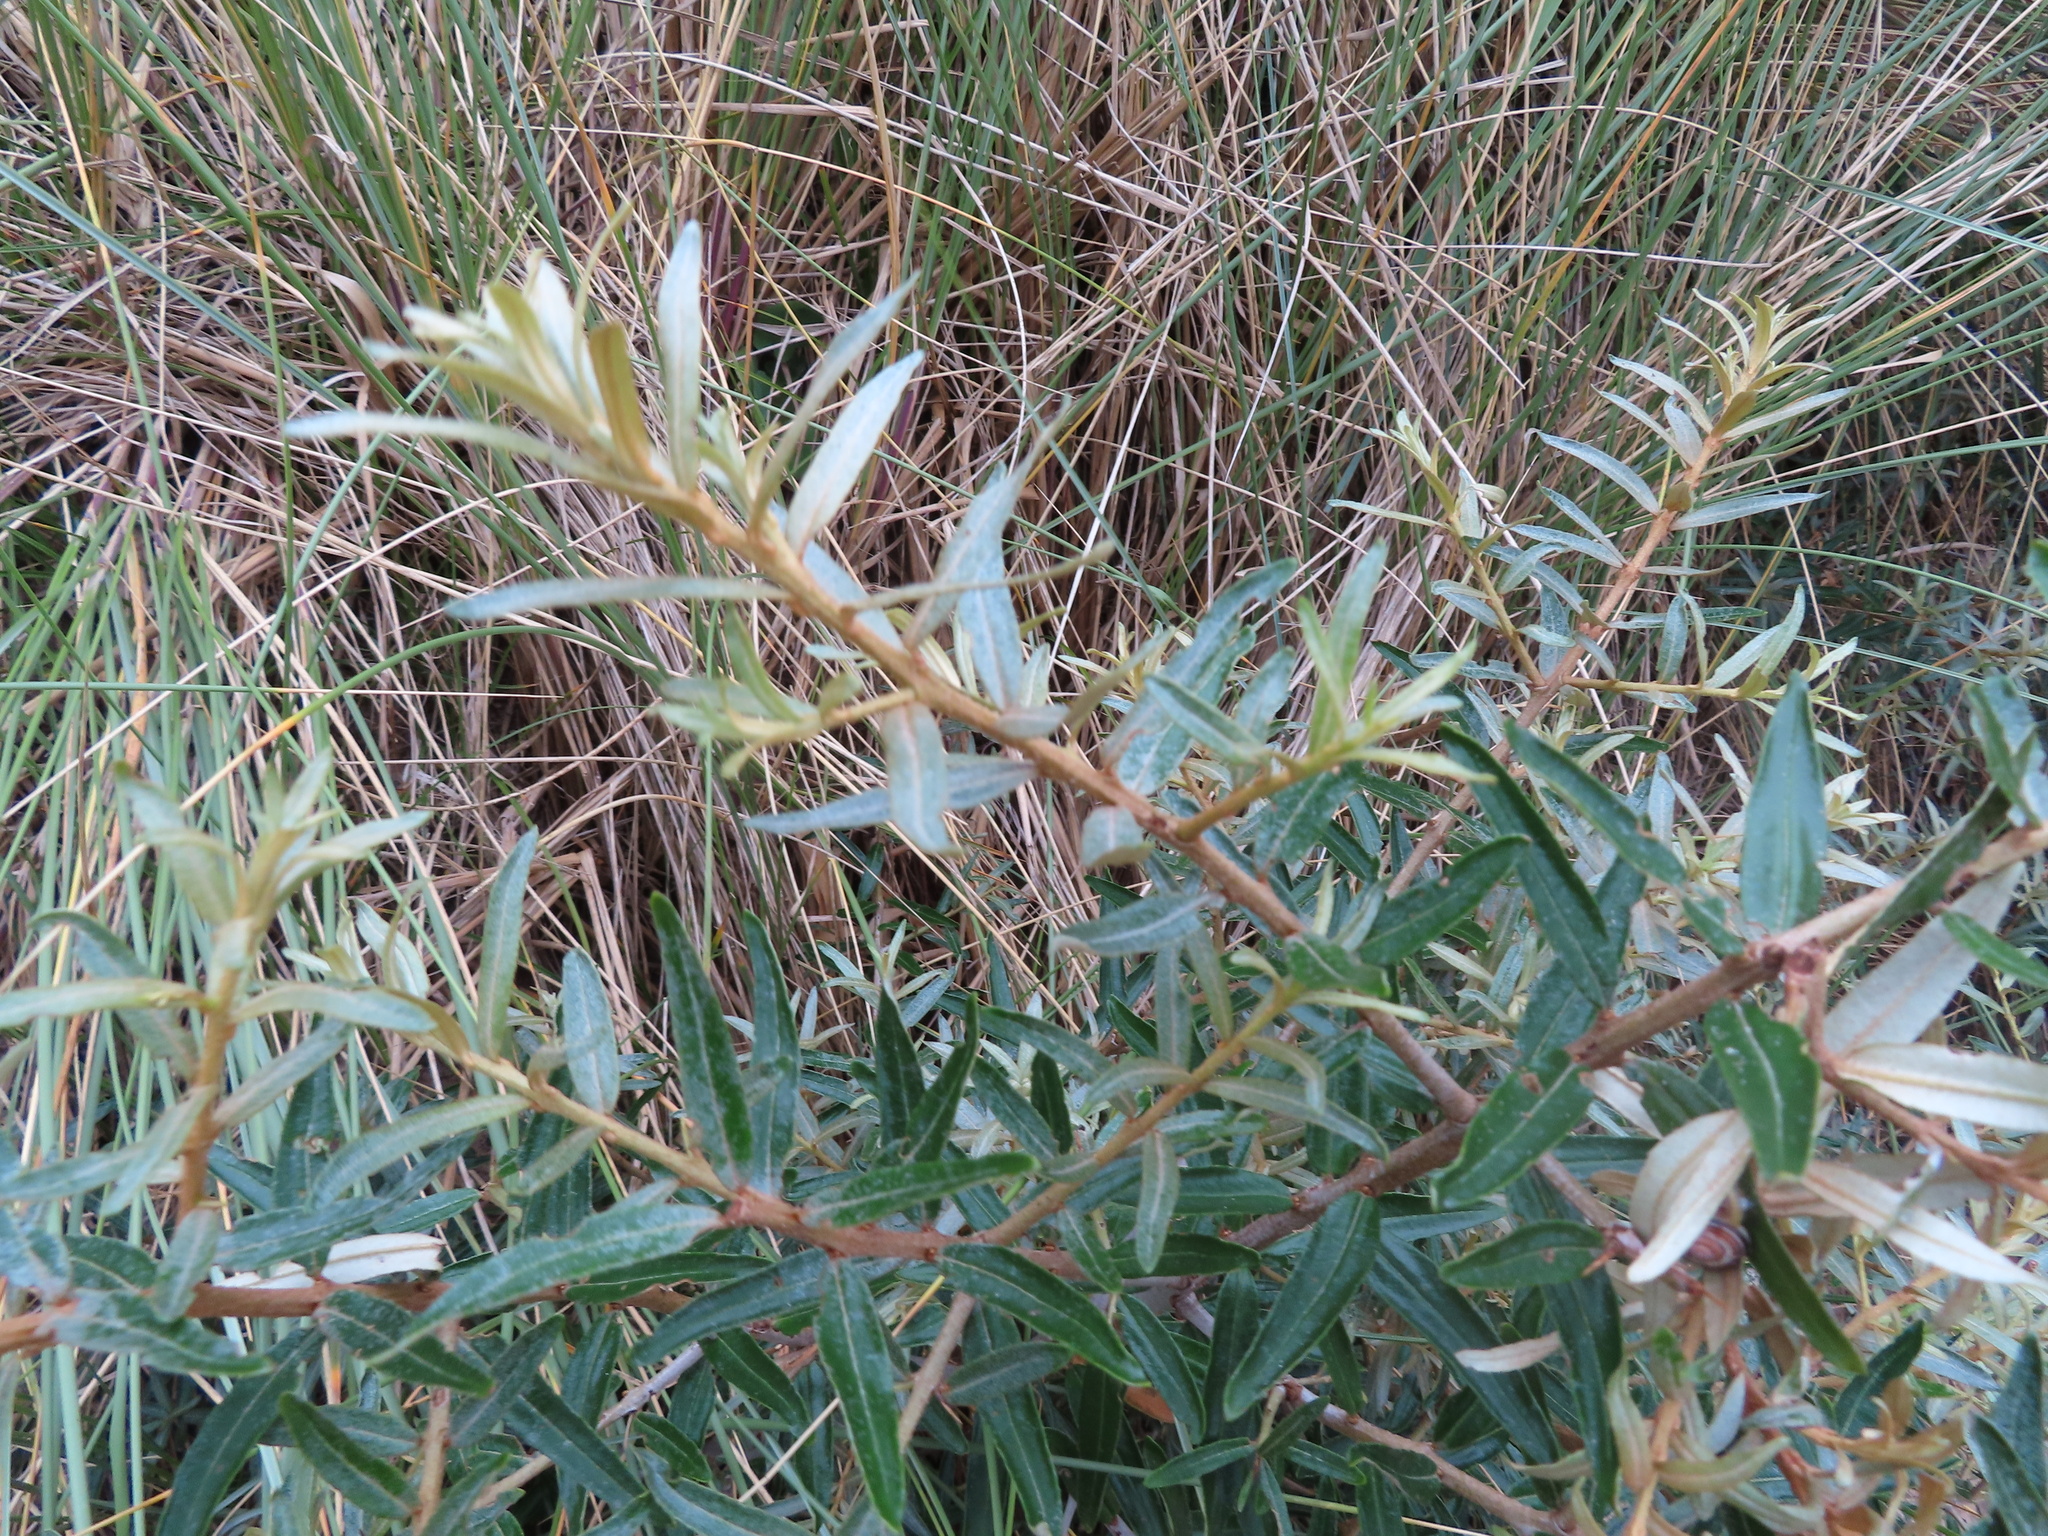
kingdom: Plantae
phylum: Tracheophyta
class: Magnoliopsida
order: Rosales
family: Elaeagnaceae
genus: Hippophae
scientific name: Hippophae rhamnoides
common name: Sea-buckthorn
